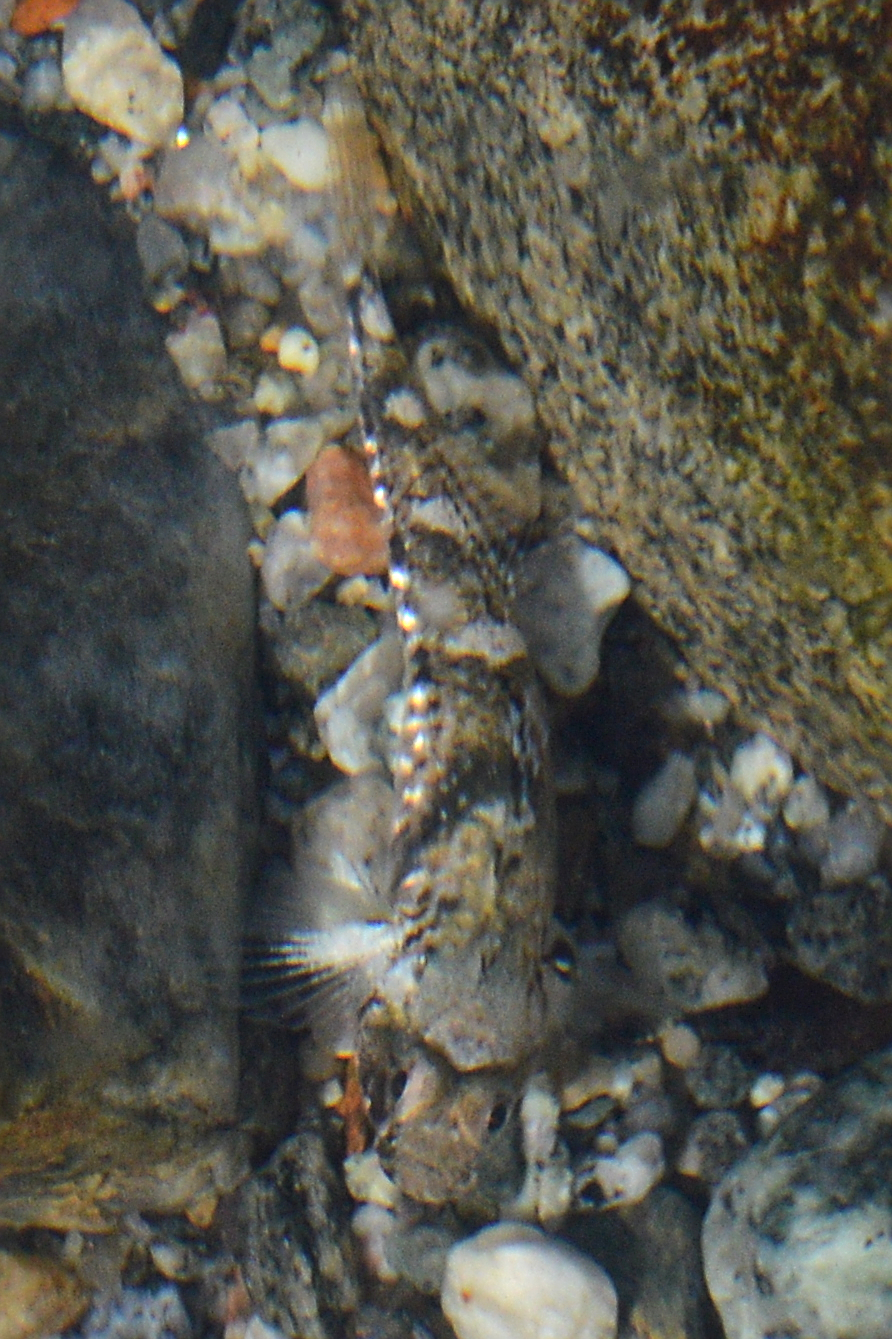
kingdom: Animalia
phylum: Chordata
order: Perciformes
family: Gobiidae
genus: Pomatoschistus
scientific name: Pomatoschistus pictus
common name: Painted goby
